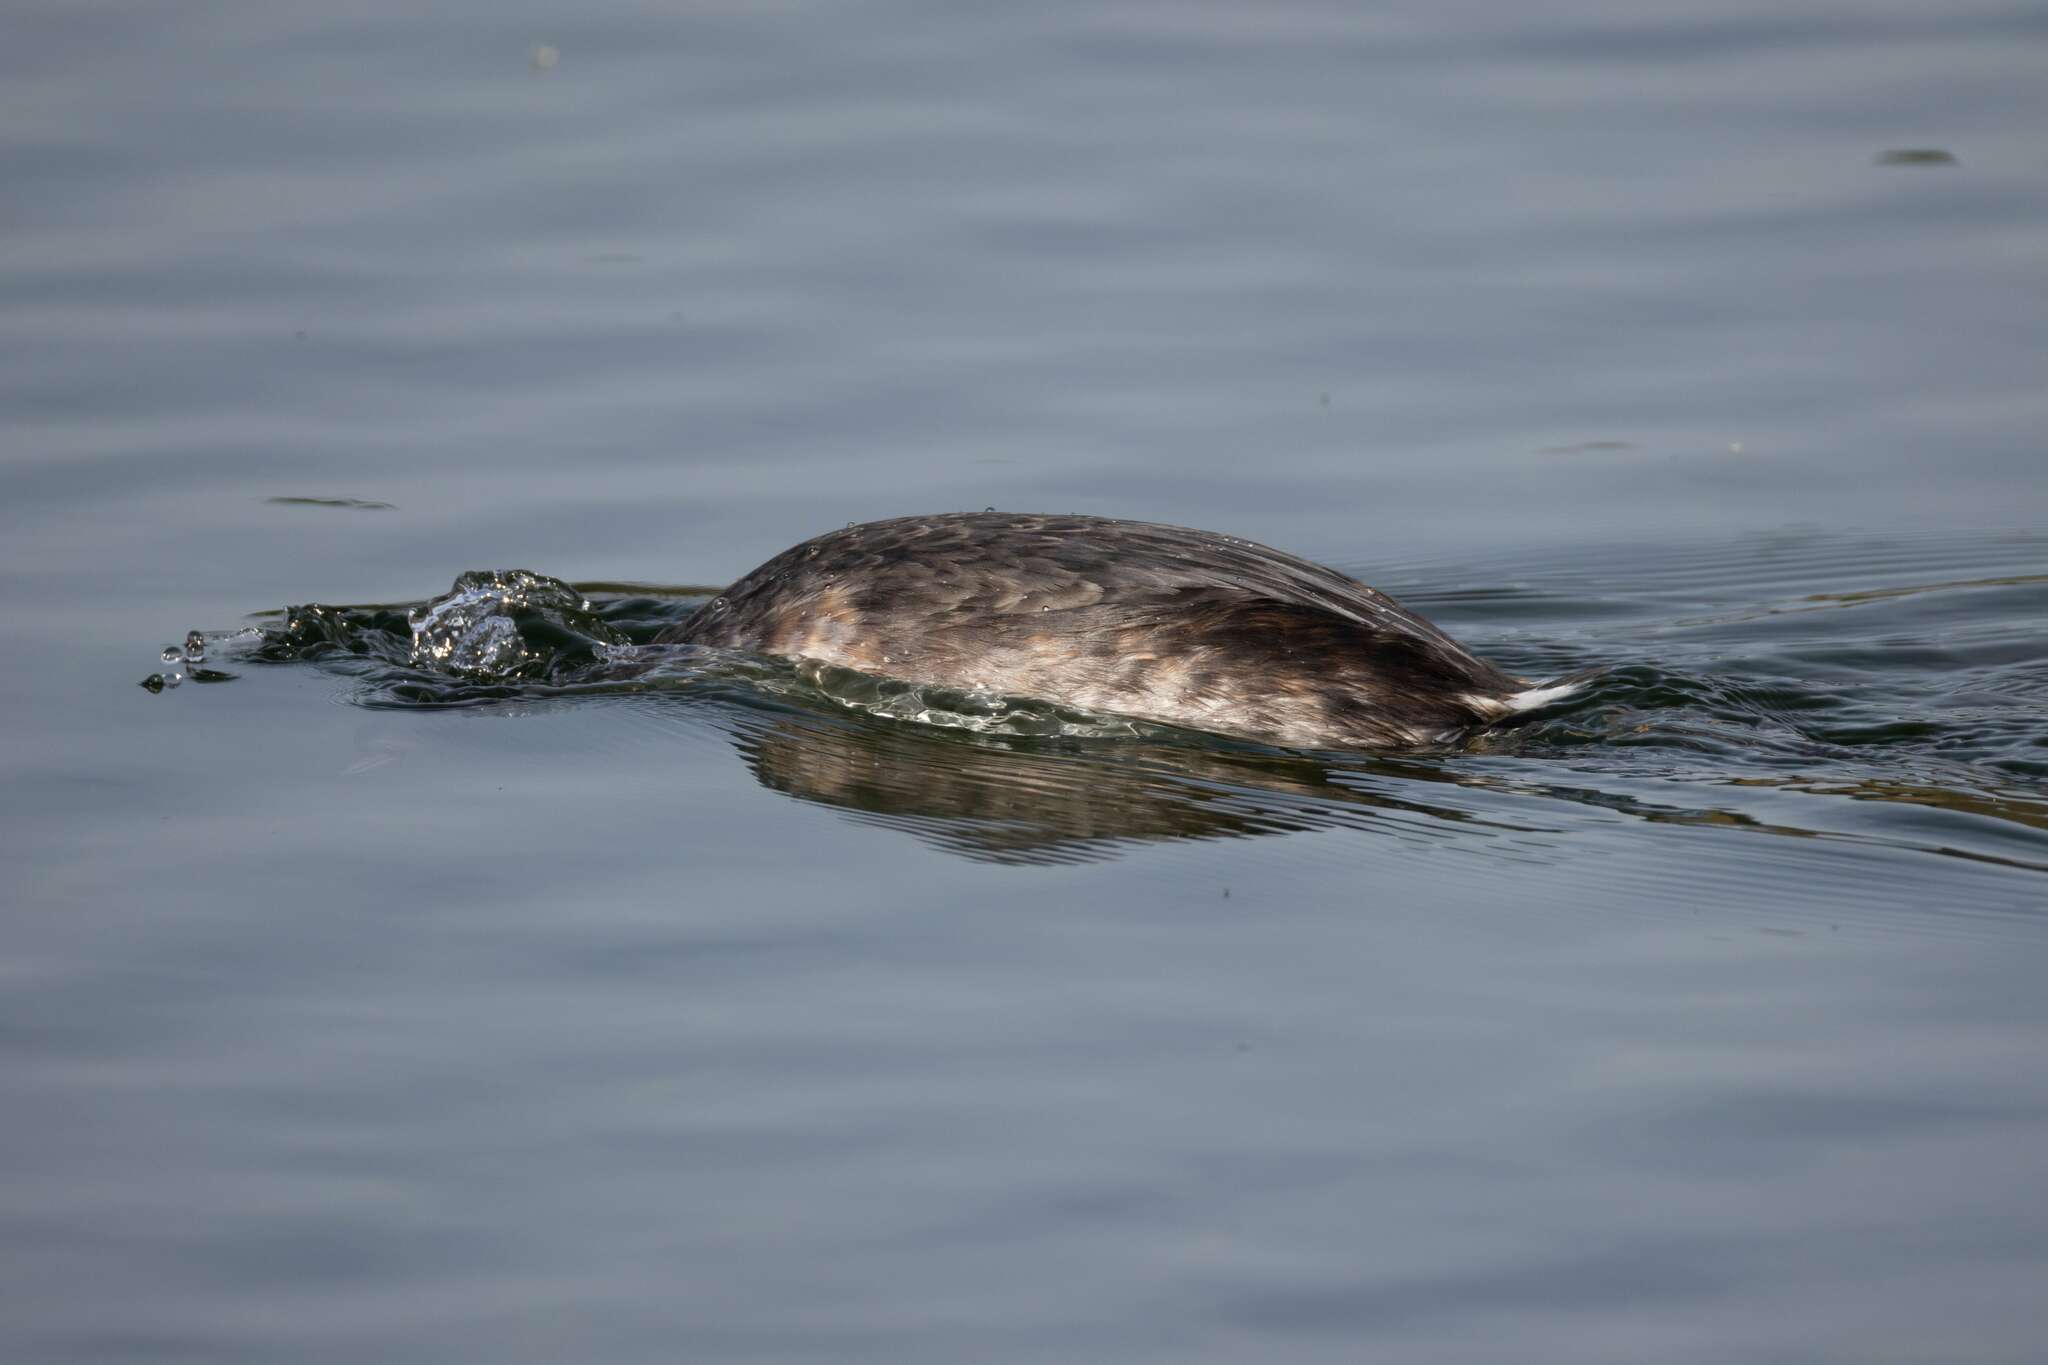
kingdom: Animalia
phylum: Chordata
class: Aves
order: Podicipediformes
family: Podicipedidae
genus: Podiceps
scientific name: Podiceps cristatus
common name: Great crested grebe
